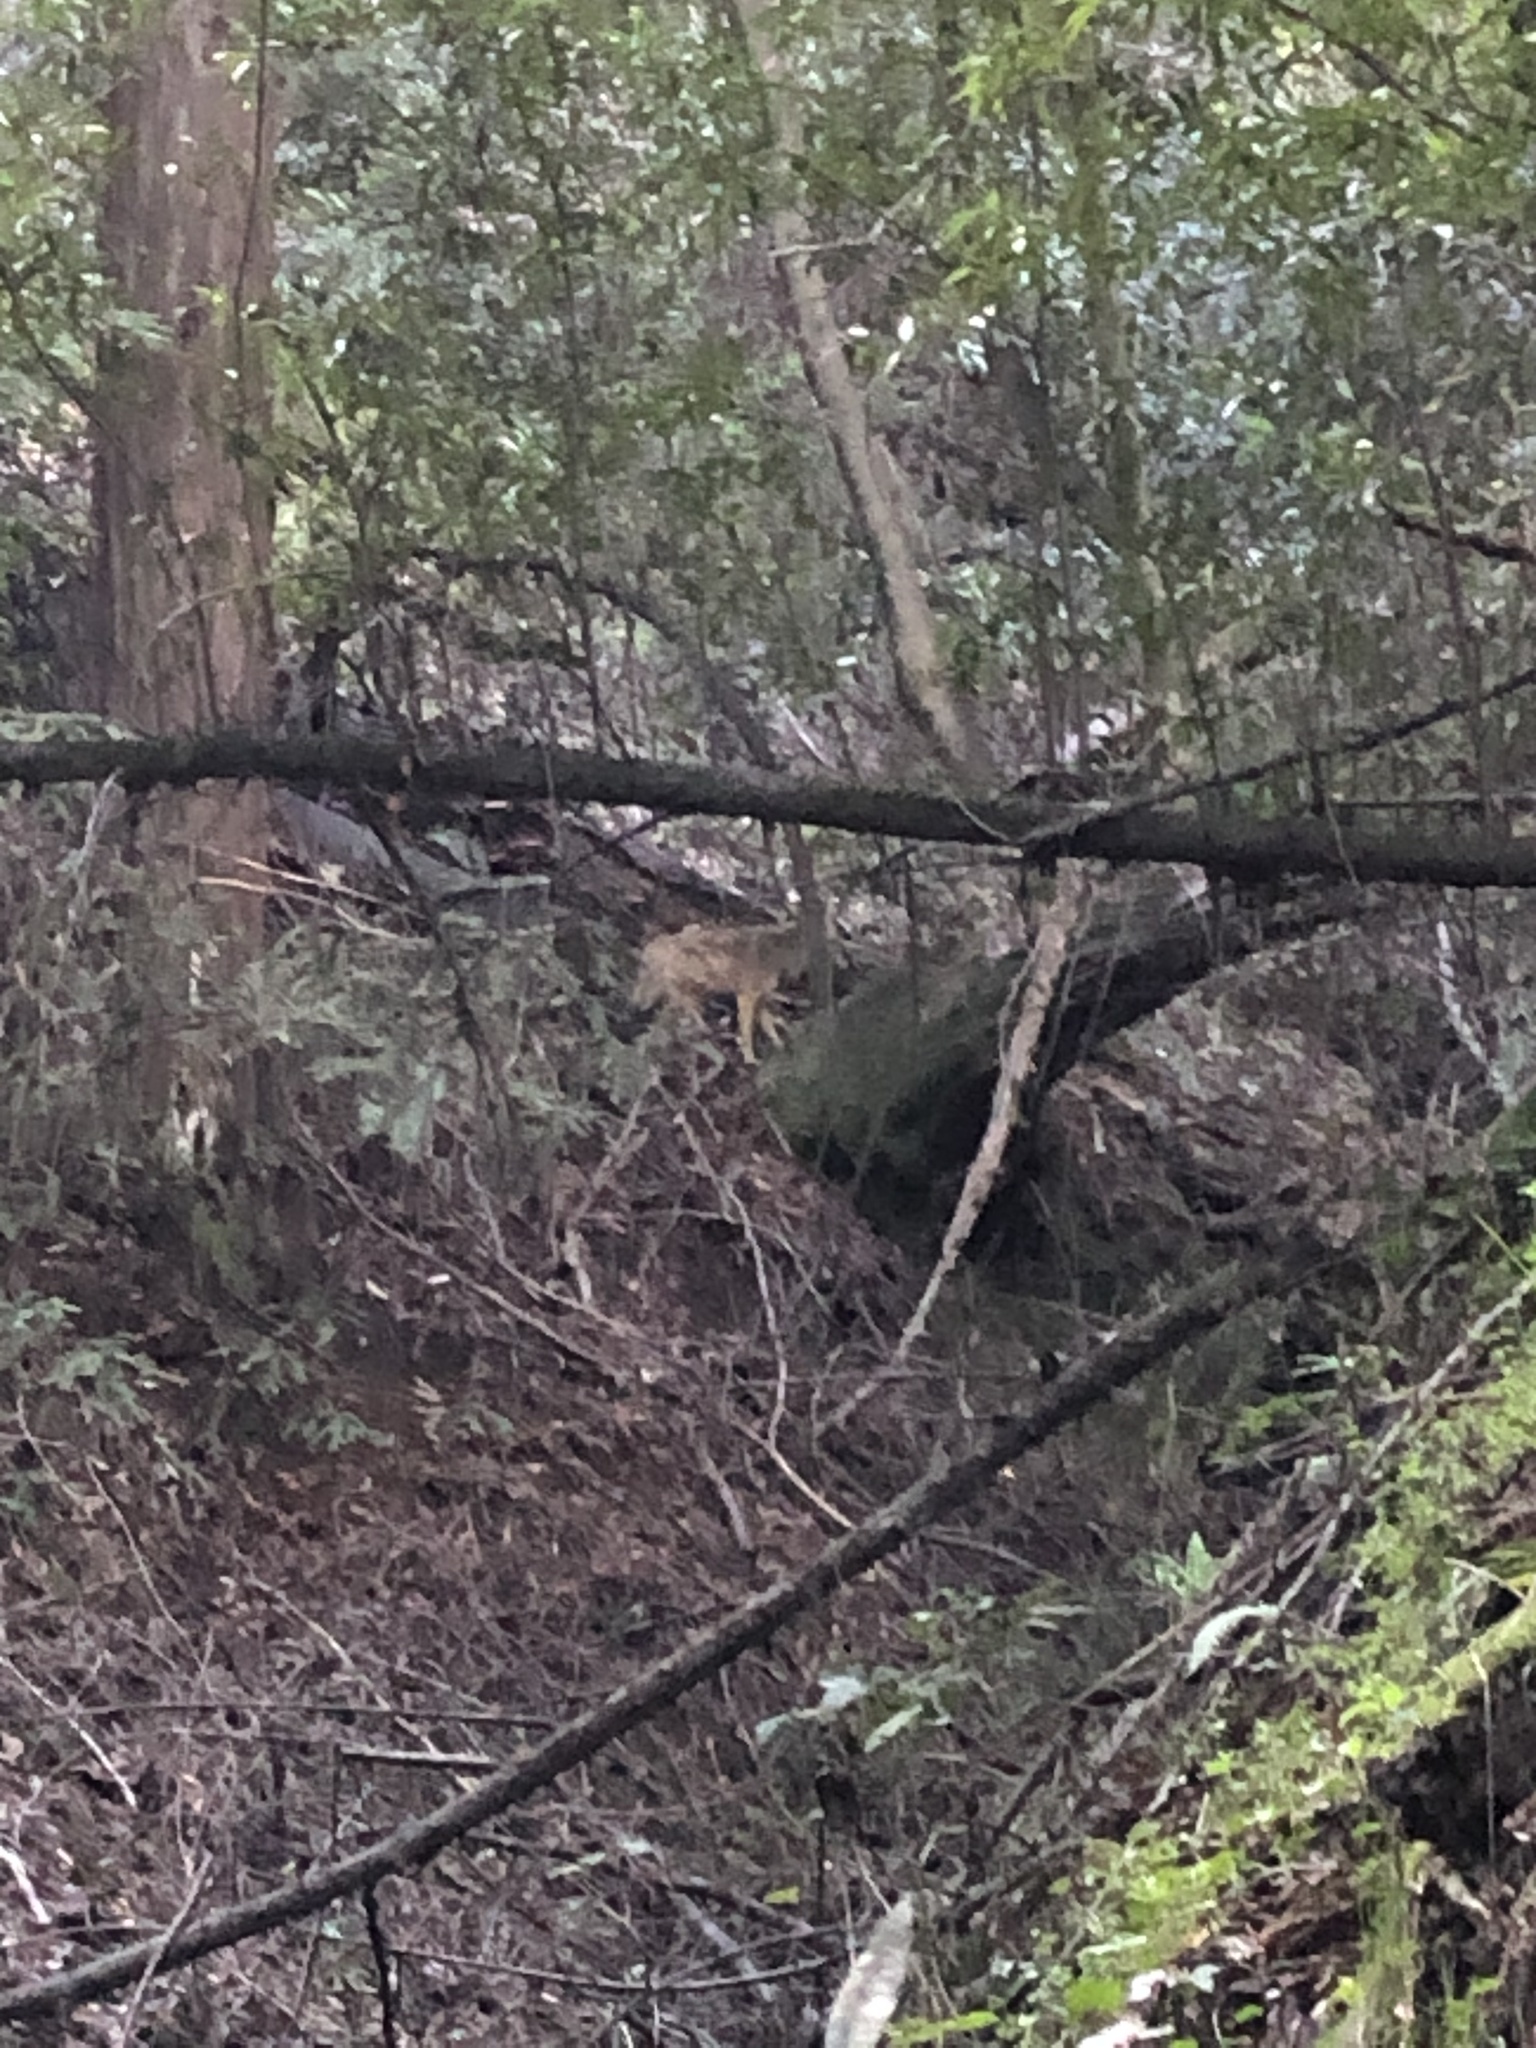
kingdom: Animalia
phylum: Chordata
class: Mammalia
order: Carnivora
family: Canidae
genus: Canis
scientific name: Canis latrans
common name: Coyote
